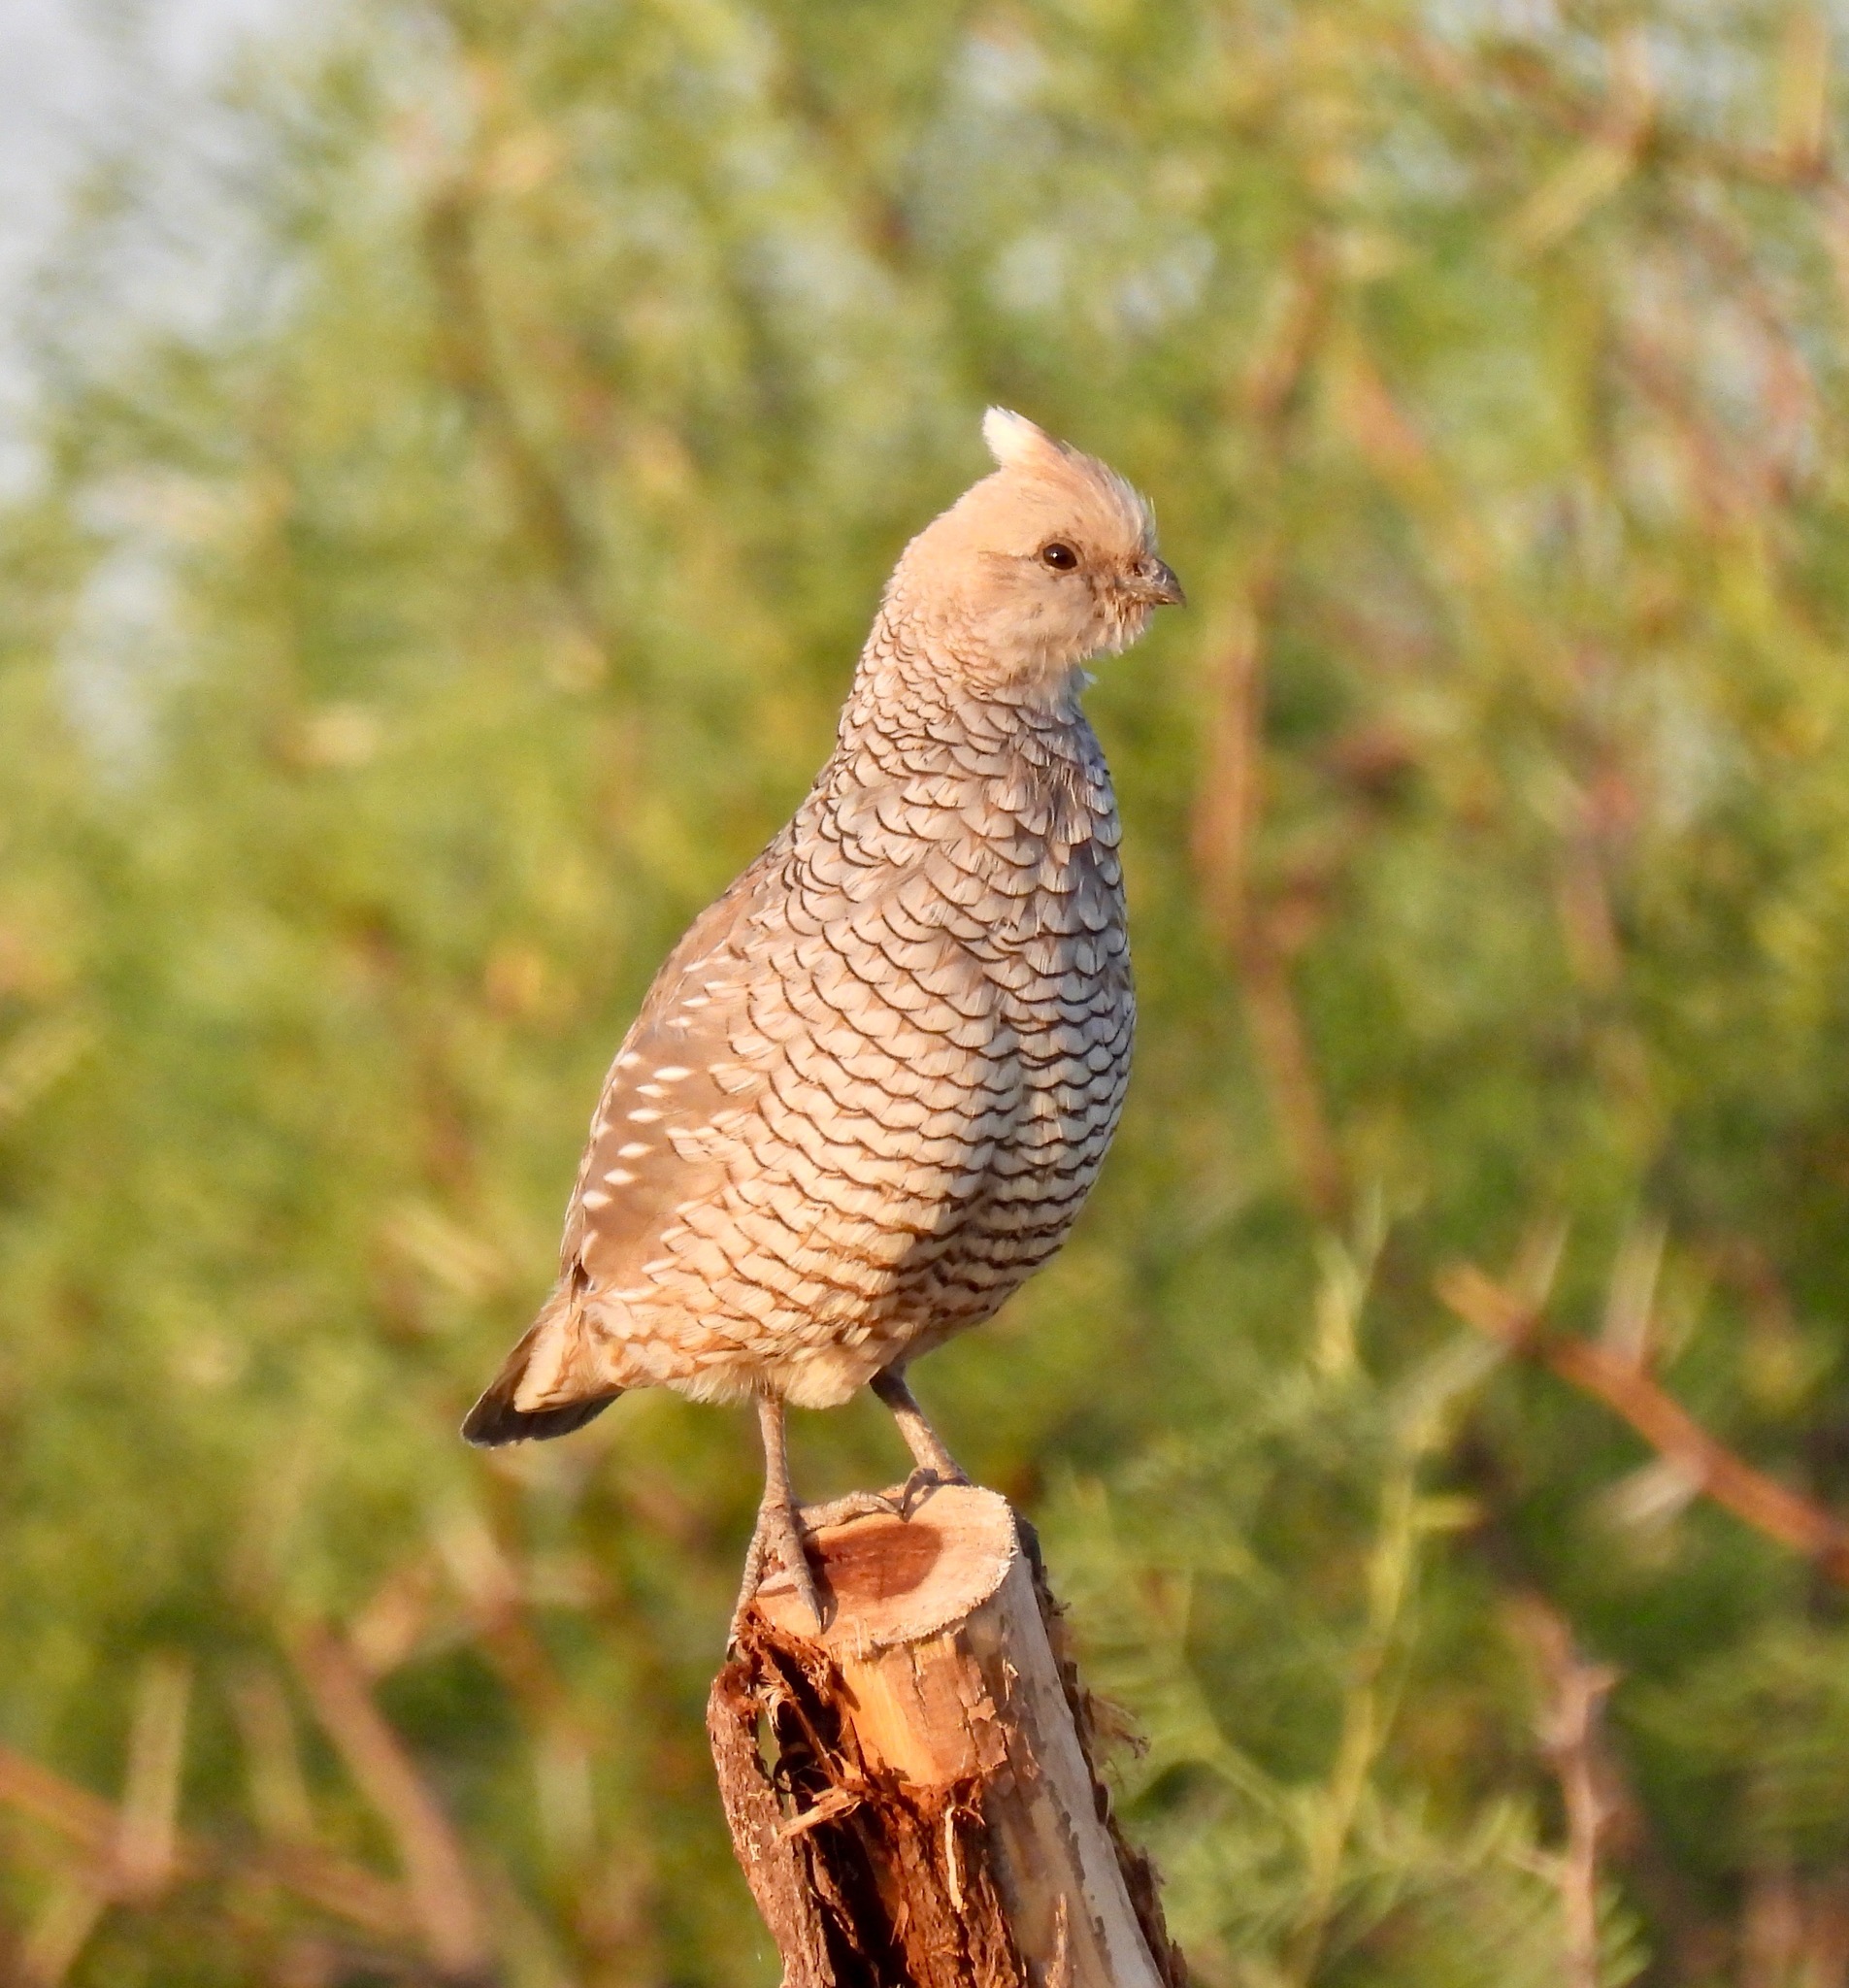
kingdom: Animalia
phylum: Chordata
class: Aves
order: Galliformes
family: Odontophoridae
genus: Callipepla
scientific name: Callipepla squamata
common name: Scaled quail
